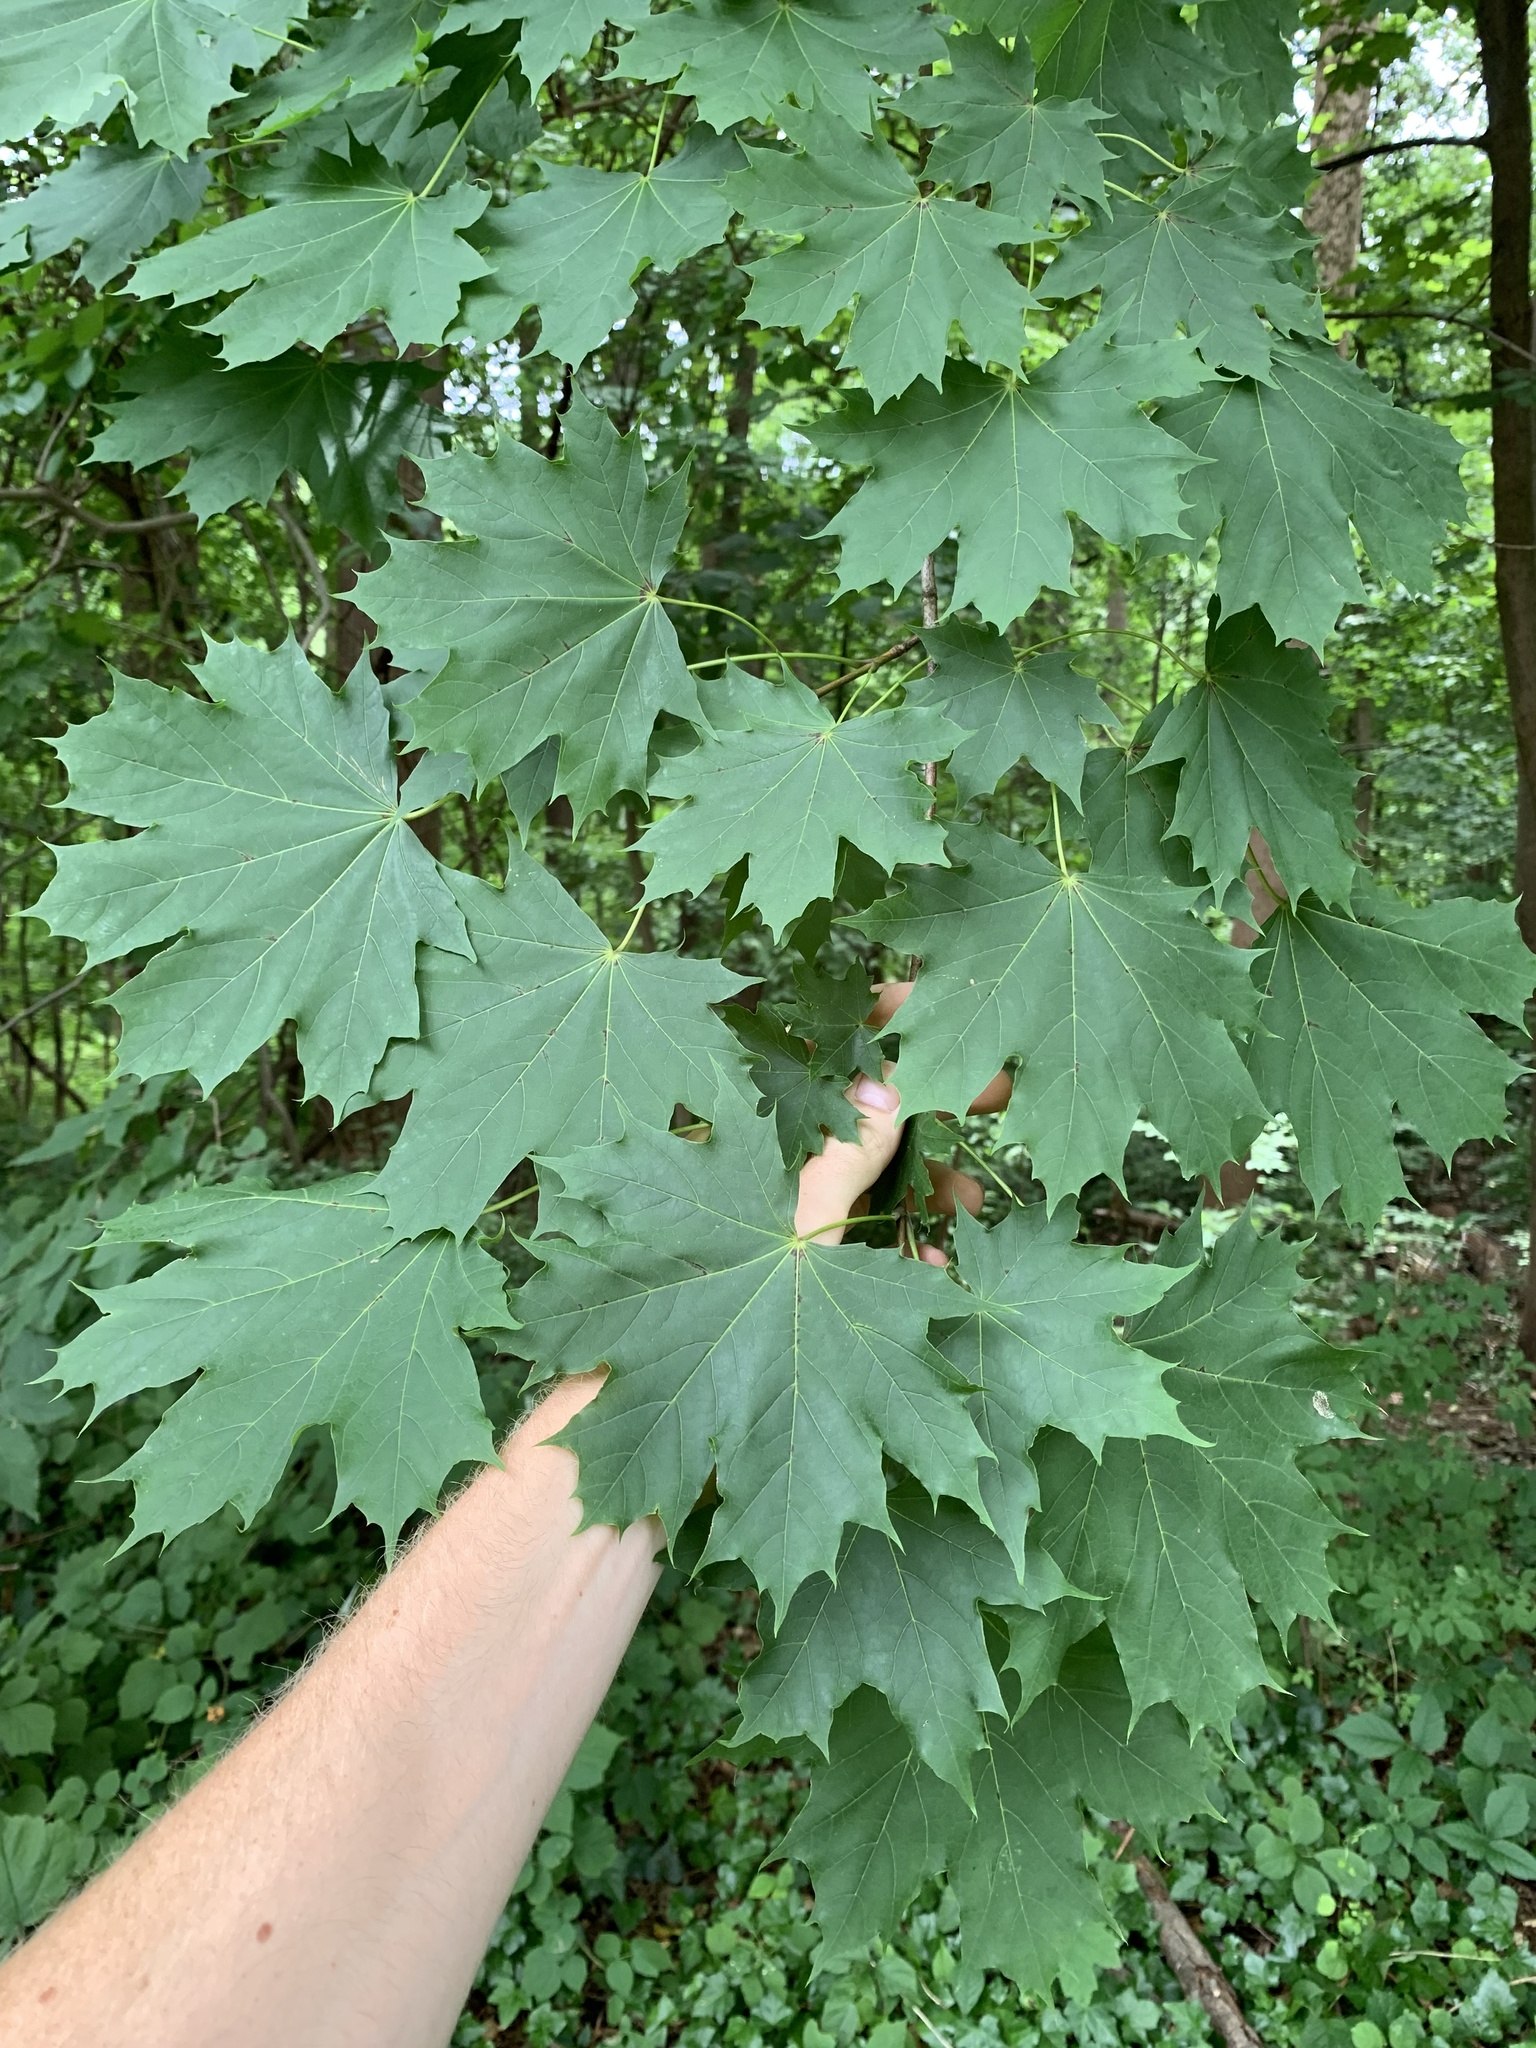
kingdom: Plantae
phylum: Tracheophyta
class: Magnoliopsida
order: Sapindales
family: Sapindaceae
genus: Acer
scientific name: Acer platanoides
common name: Norway maple
